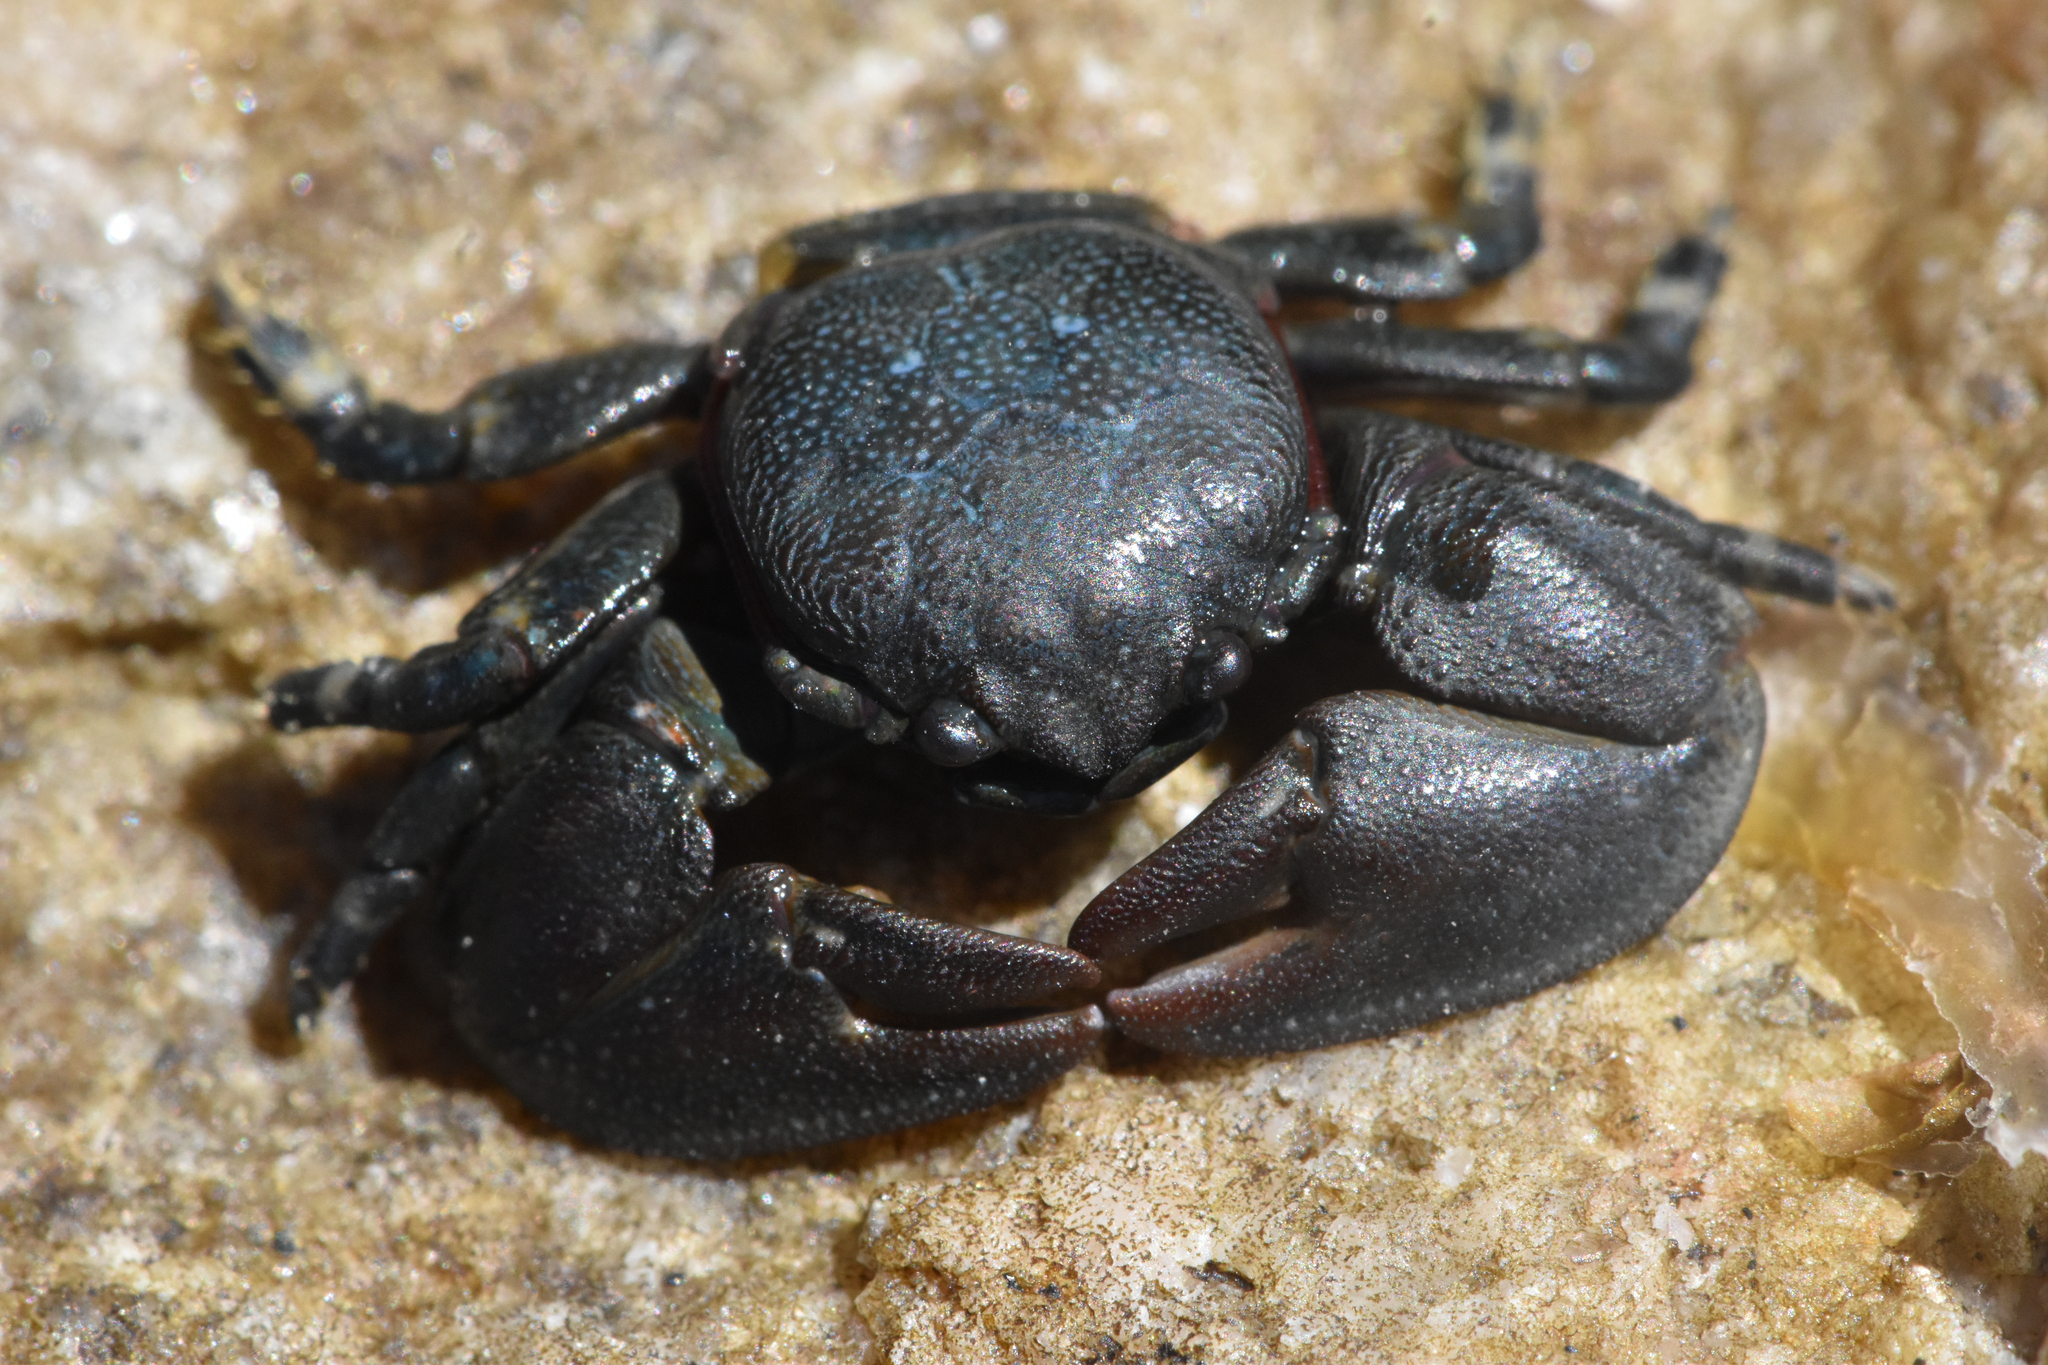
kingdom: Animalia
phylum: Arthropoda
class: Malacostraca
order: Decapoda
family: Porcellanidae
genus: Petrolisthes
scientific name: Petrolisthes cinctipes
